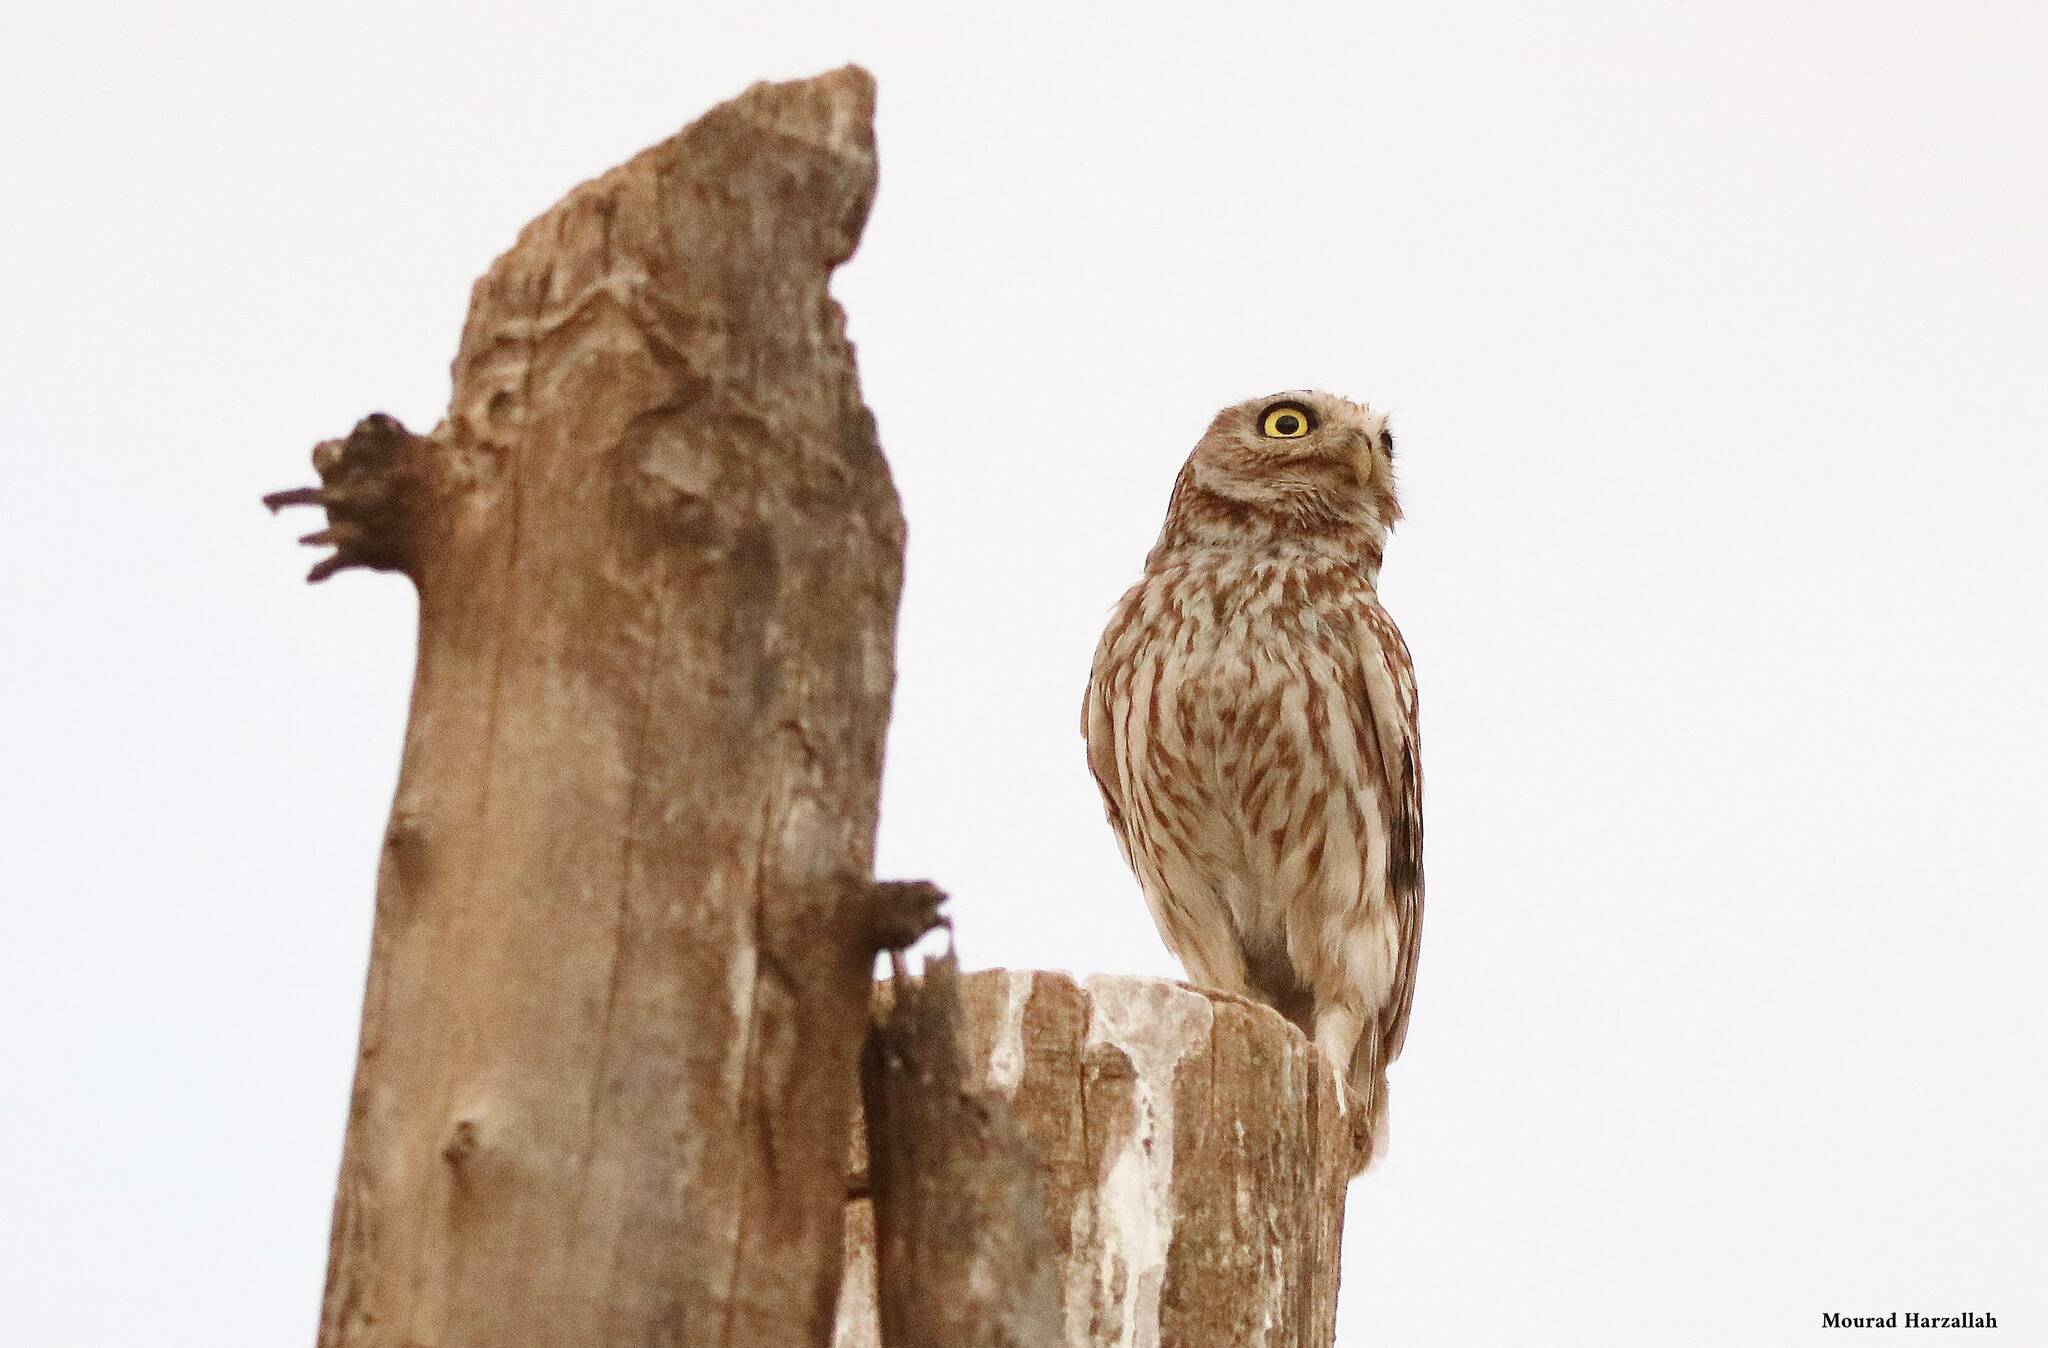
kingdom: Animalia
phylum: Chordata
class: Aves
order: Strigiformes
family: Strigidae
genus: Athene
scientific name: Athene noctua
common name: Little owl
